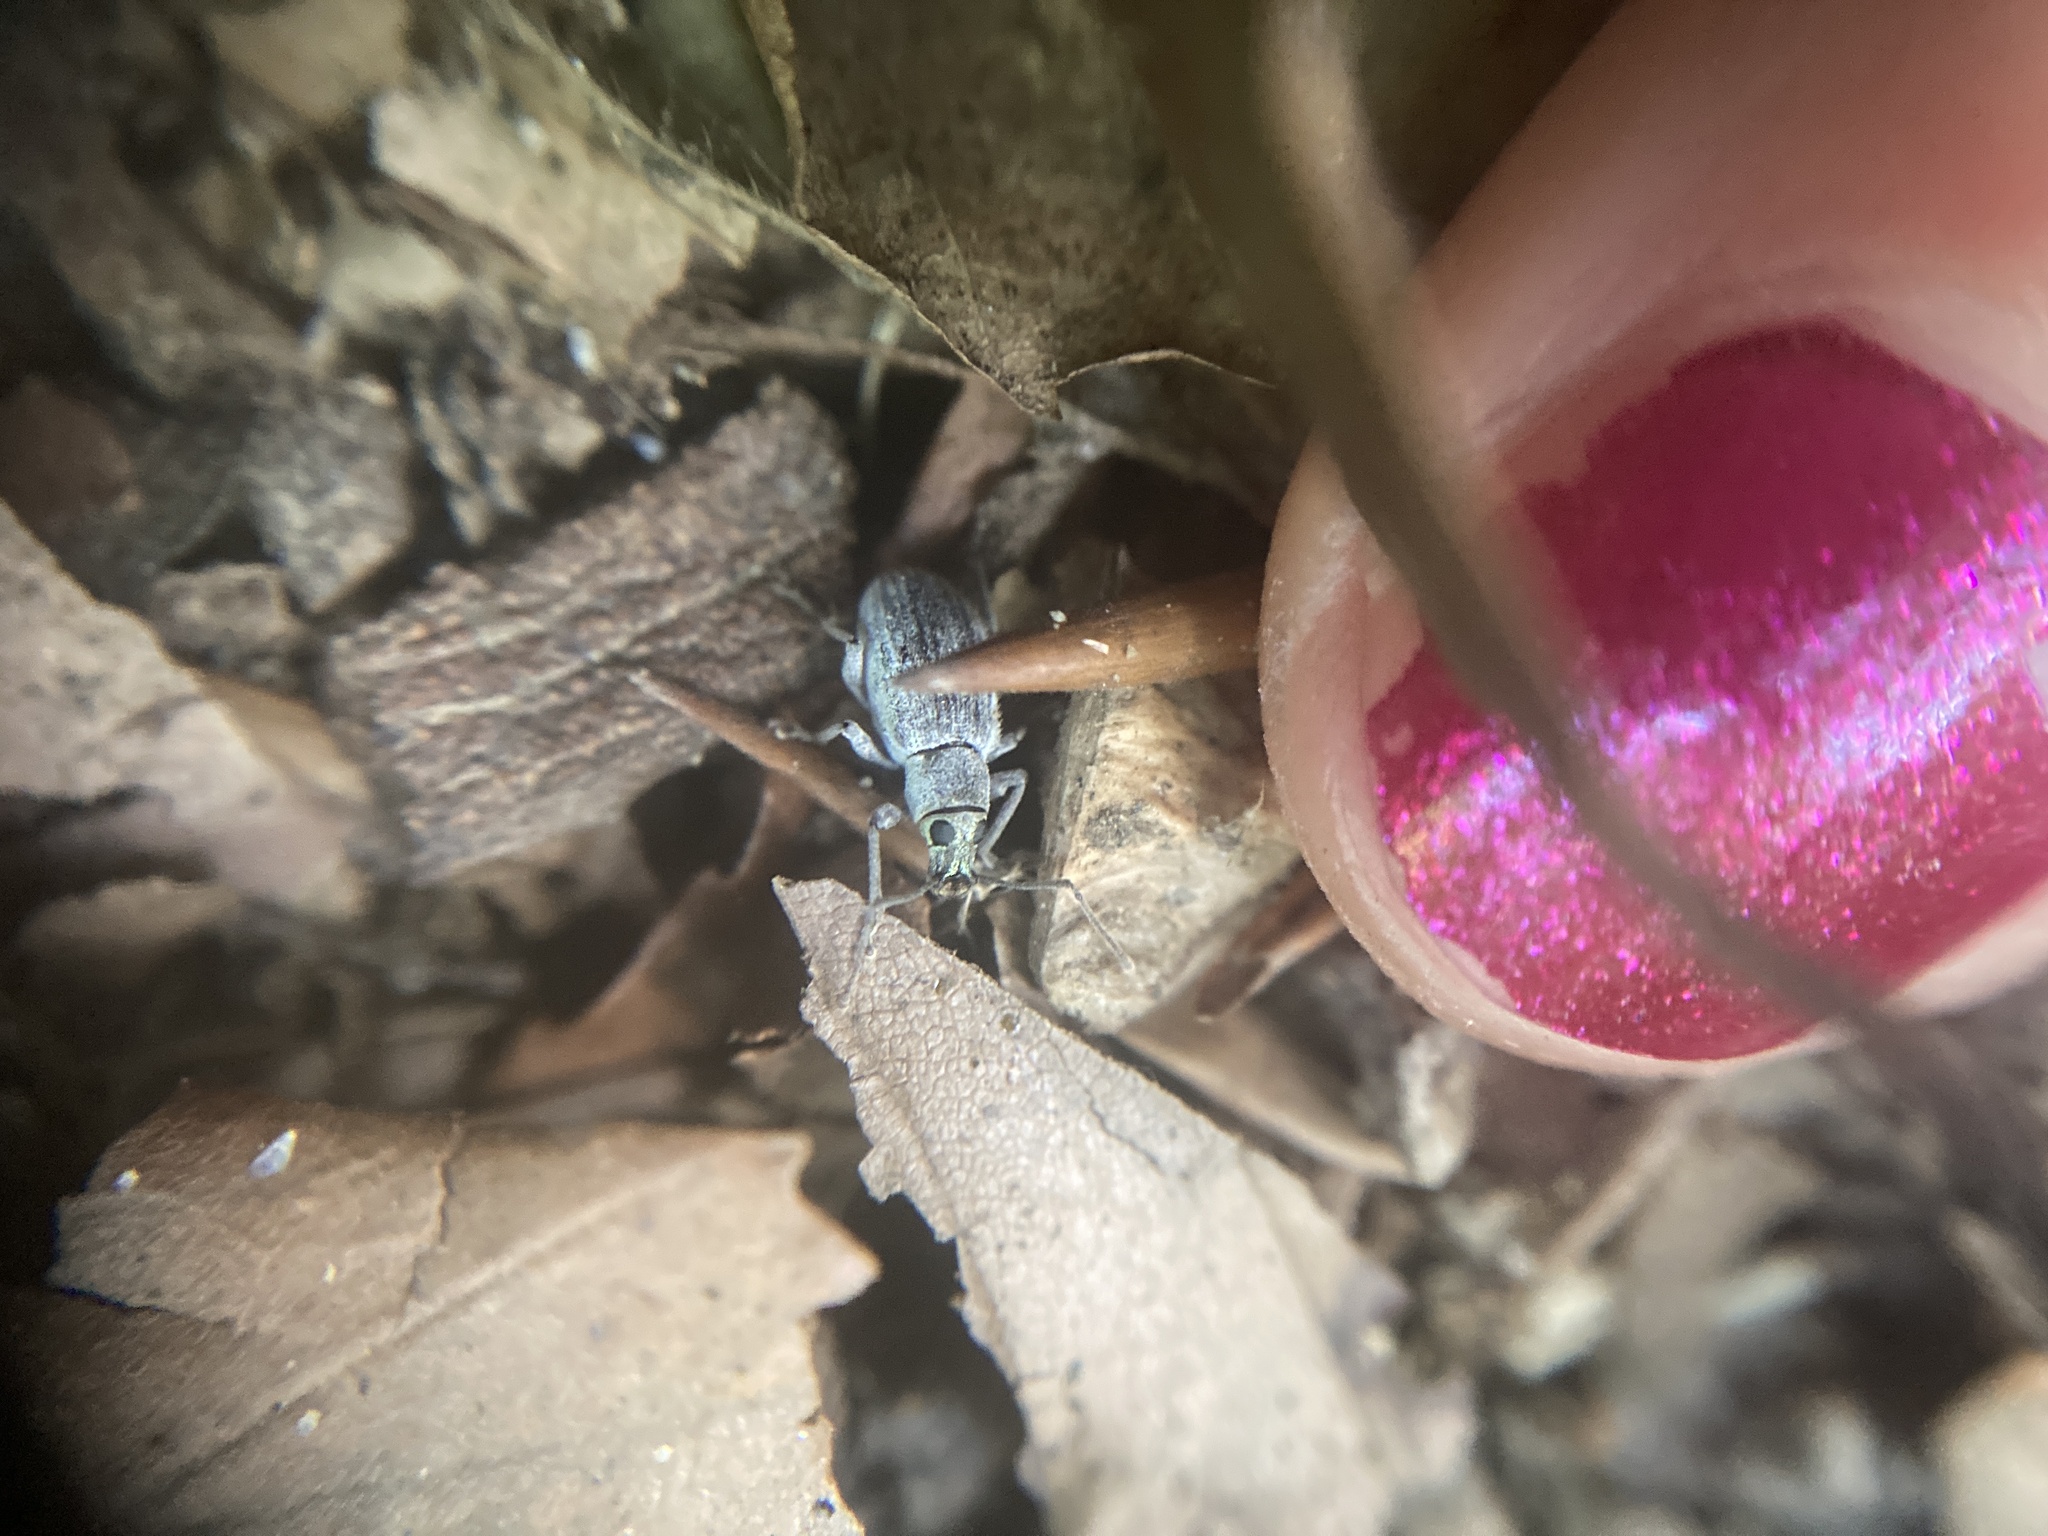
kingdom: Animalia
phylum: Arthropoda
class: Insecta
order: Coleoptera
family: Curculionidae
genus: Cyrtepistomus
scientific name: Cyrtepistomus castaneus
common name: Weevil
